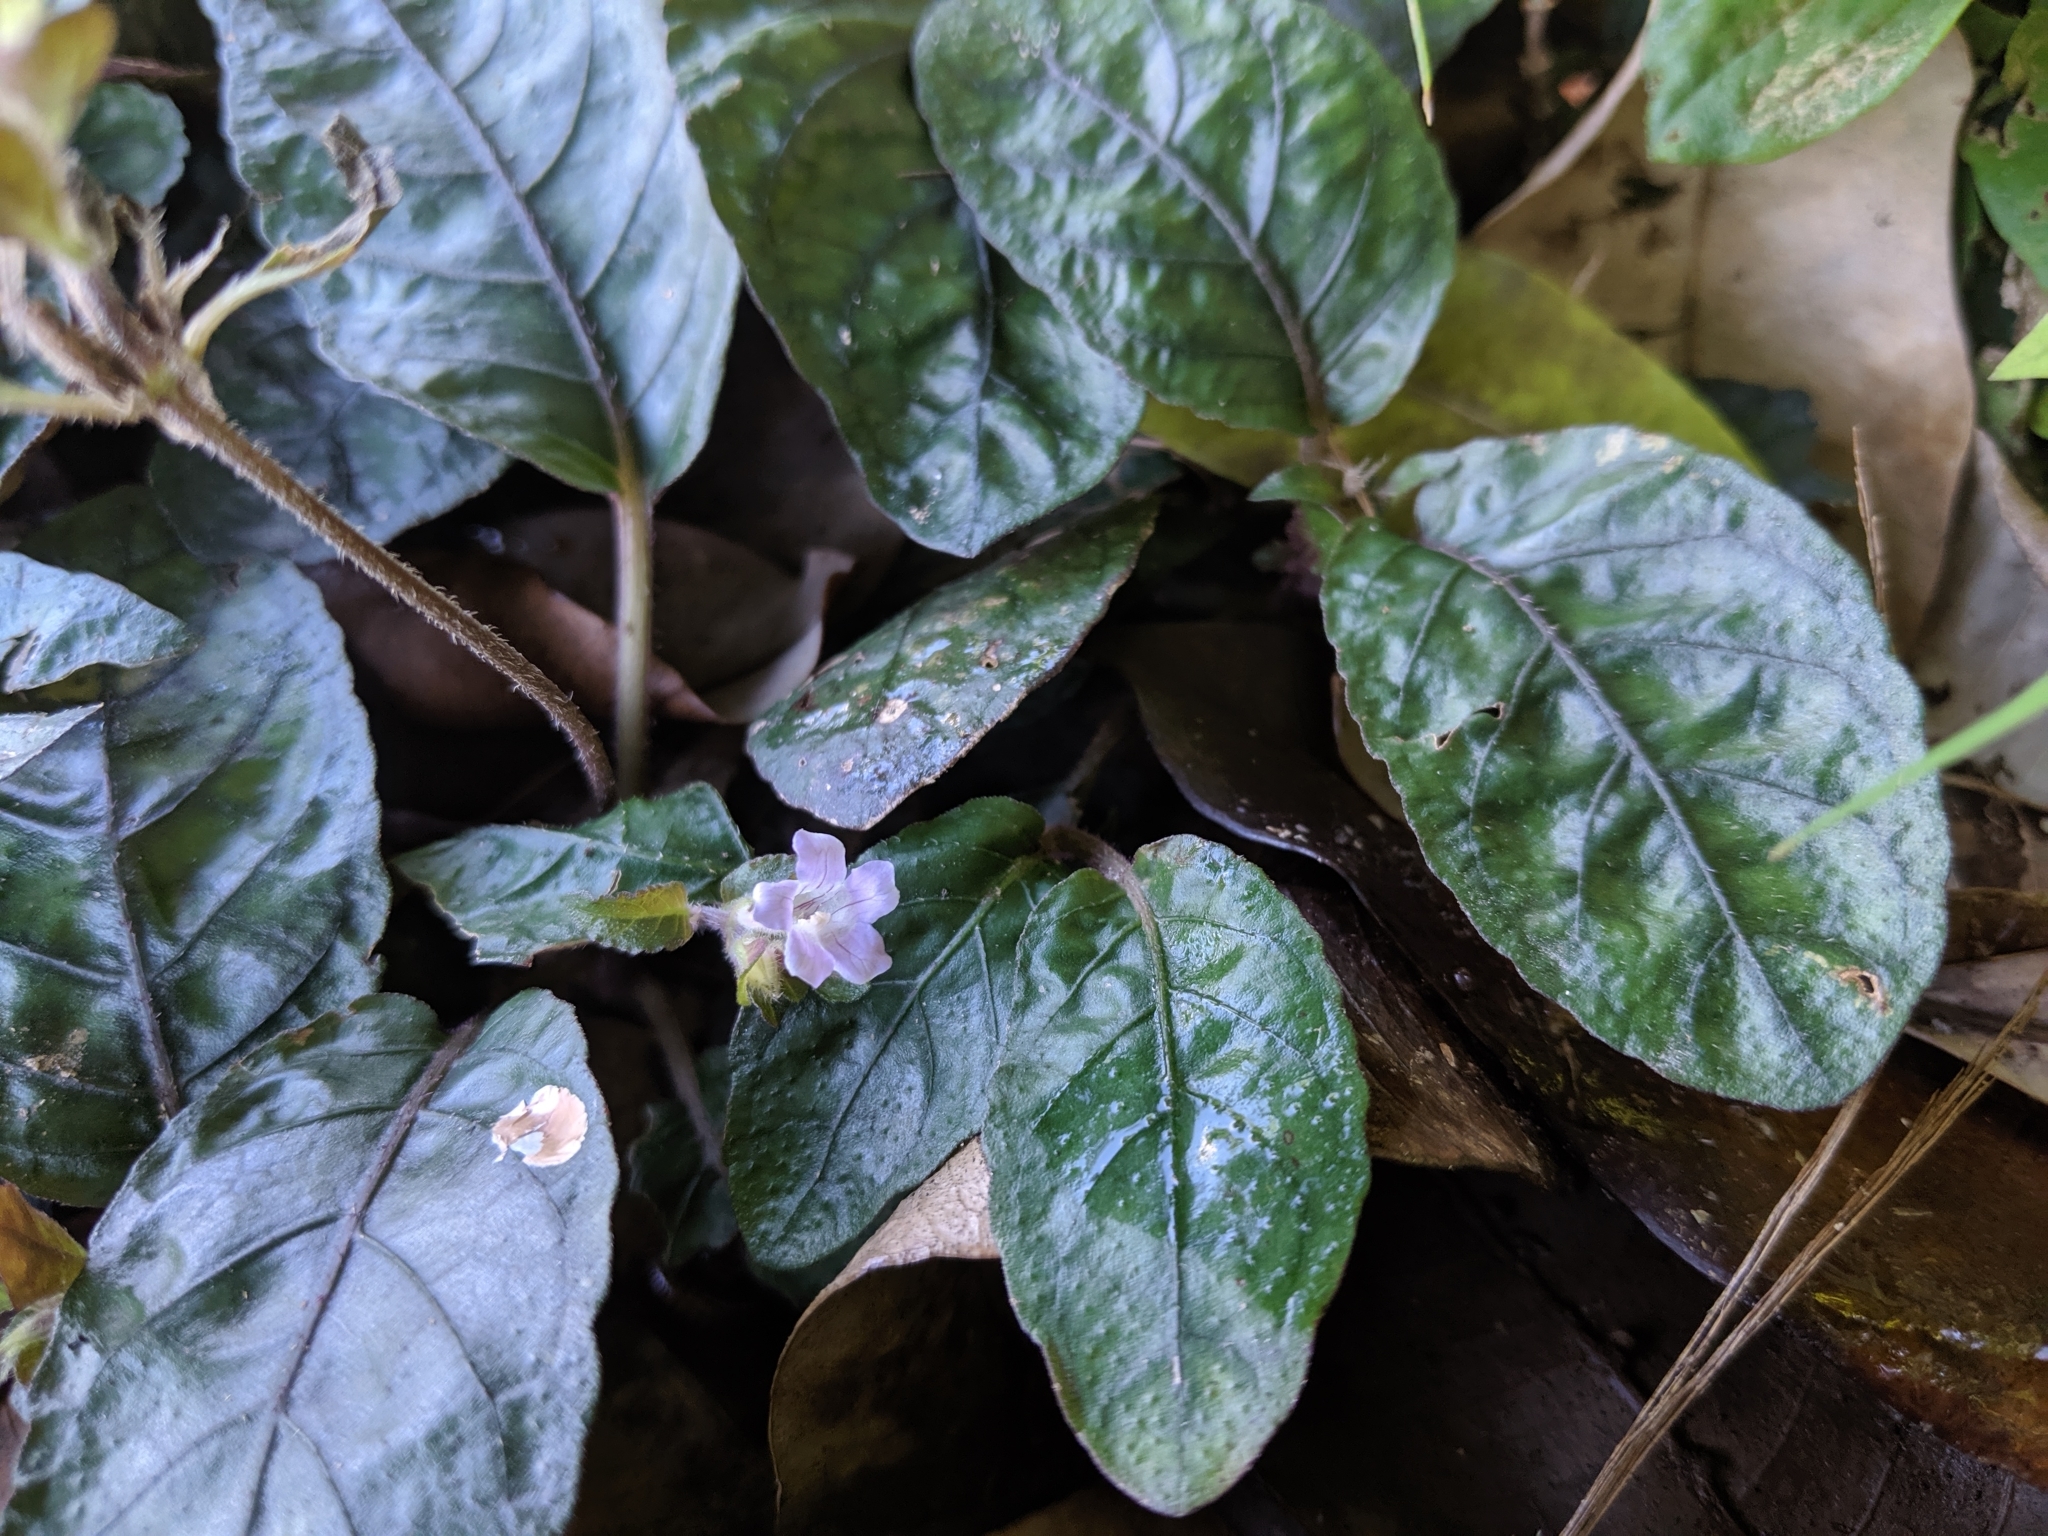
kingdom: Plantae
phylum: Tracheophyta
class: Magnoliopsida
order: Lamiales
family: Acanthaceae
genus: Strobilanthes
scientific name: Strobilanthes reptans
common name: Acanthaceae
